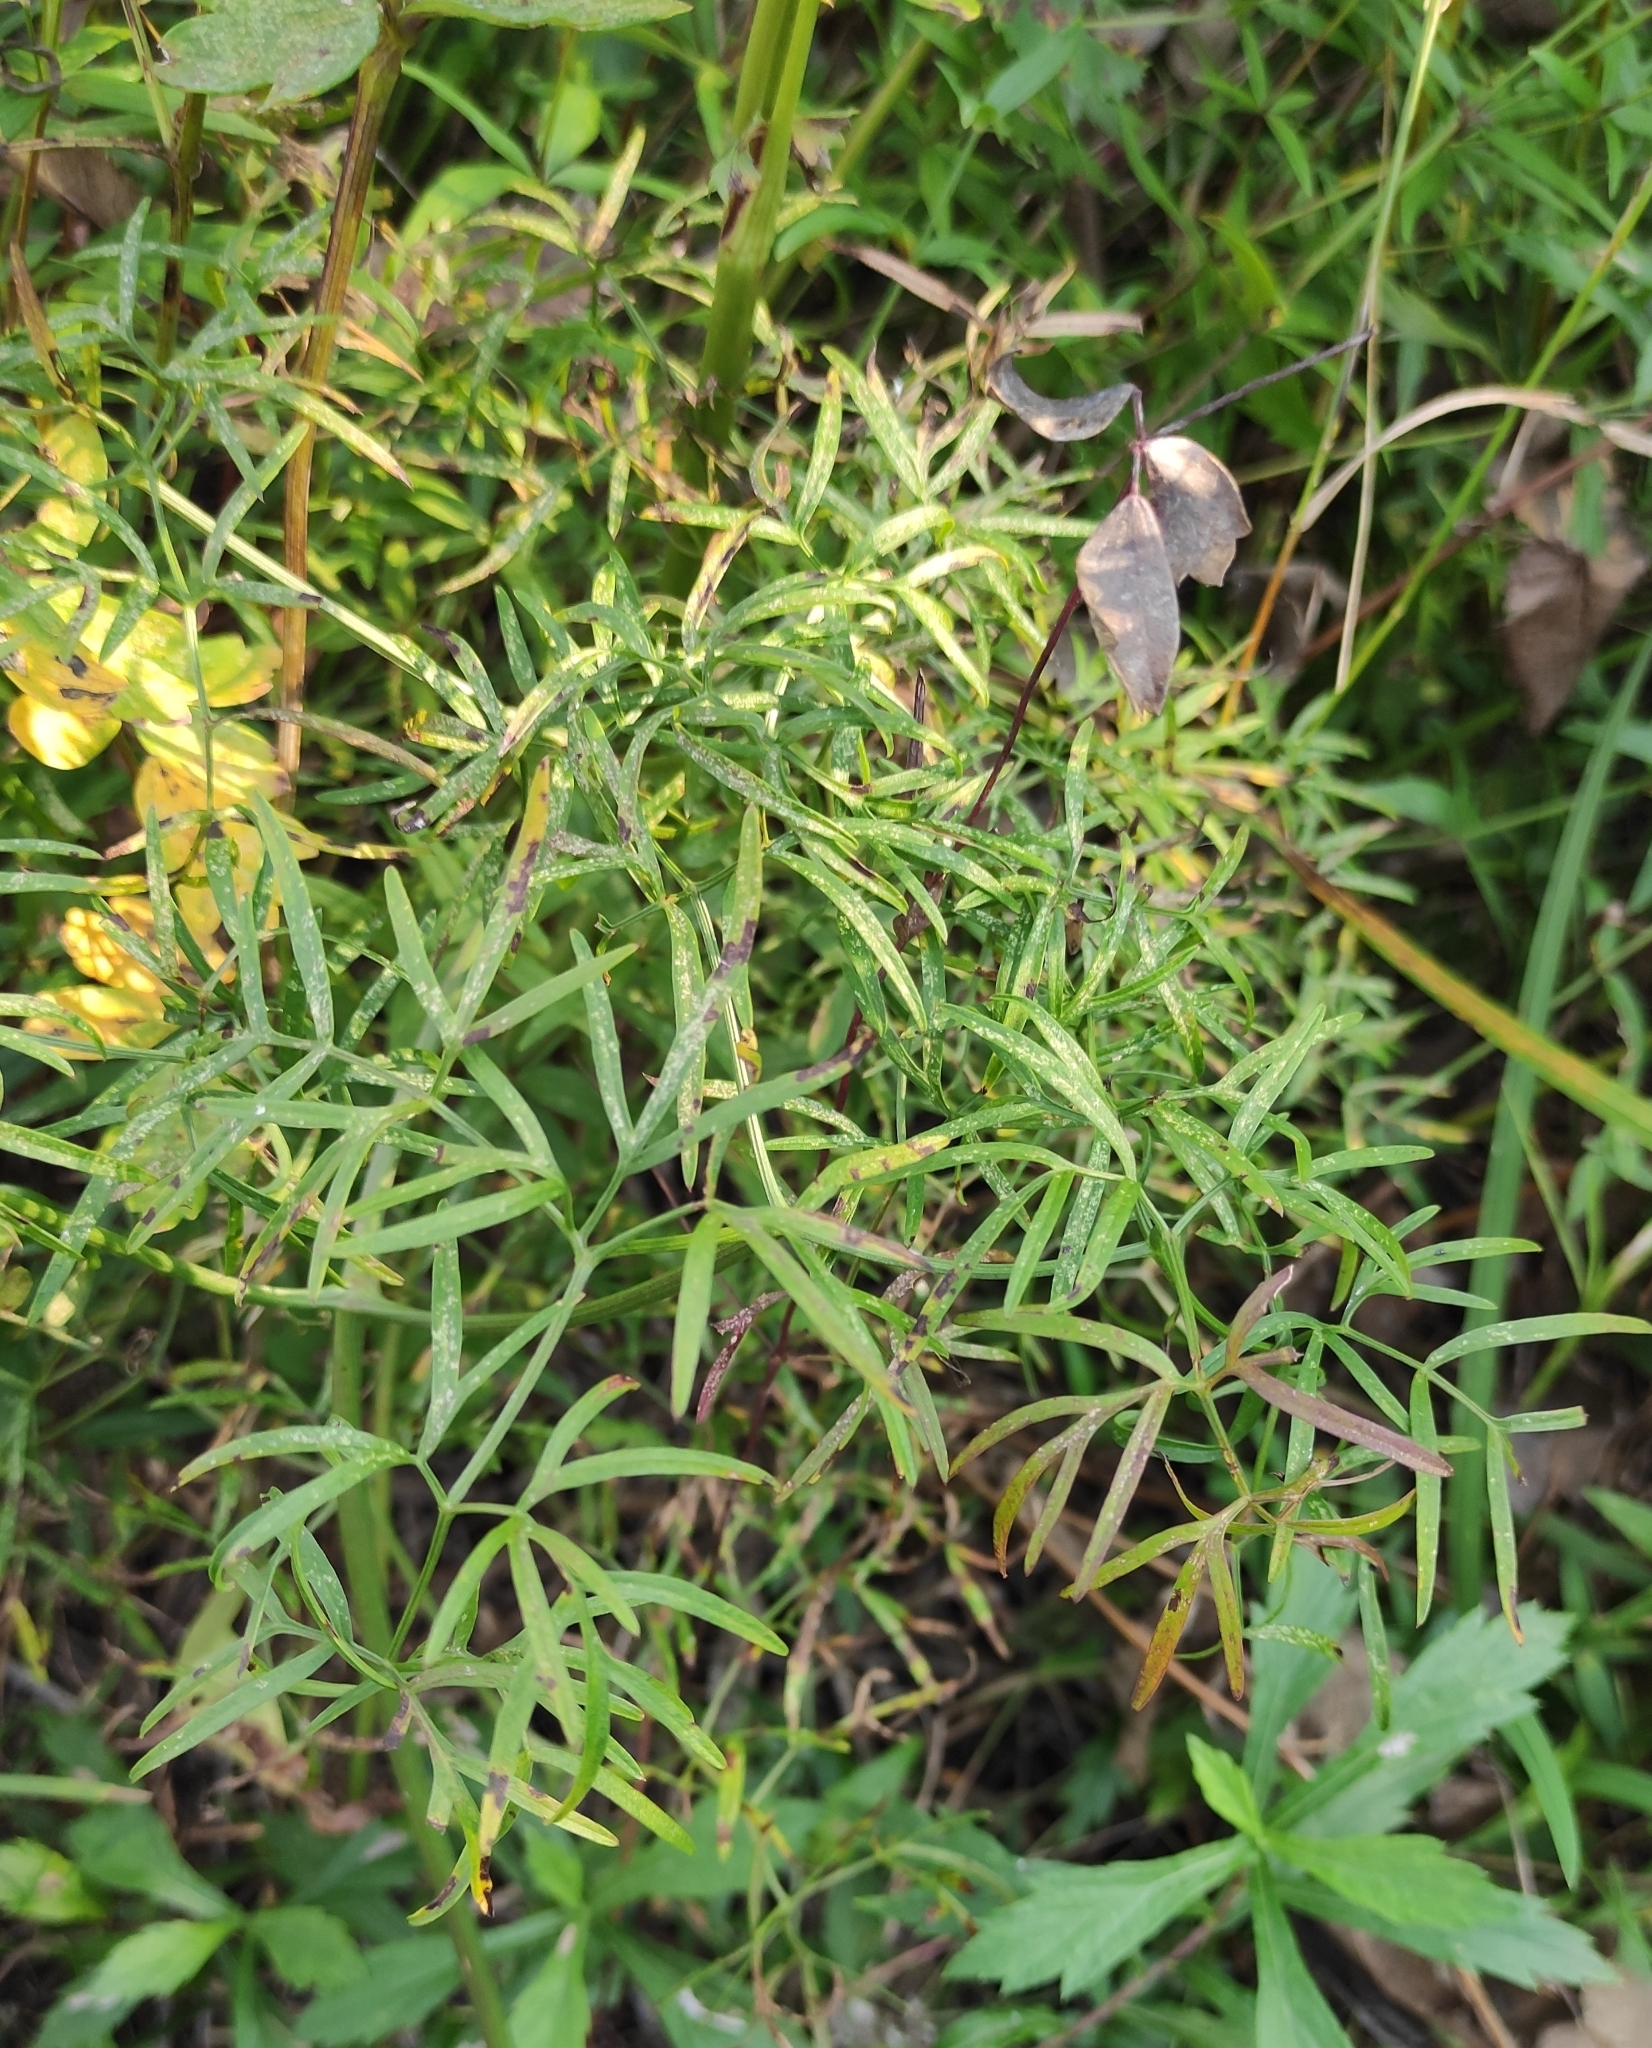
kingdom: Plantae
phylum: Tracheophyta
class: Magnoliopsida
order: Apiales
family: Apiaceae
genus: Cenolophium
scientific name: Cenolophium fischeri
